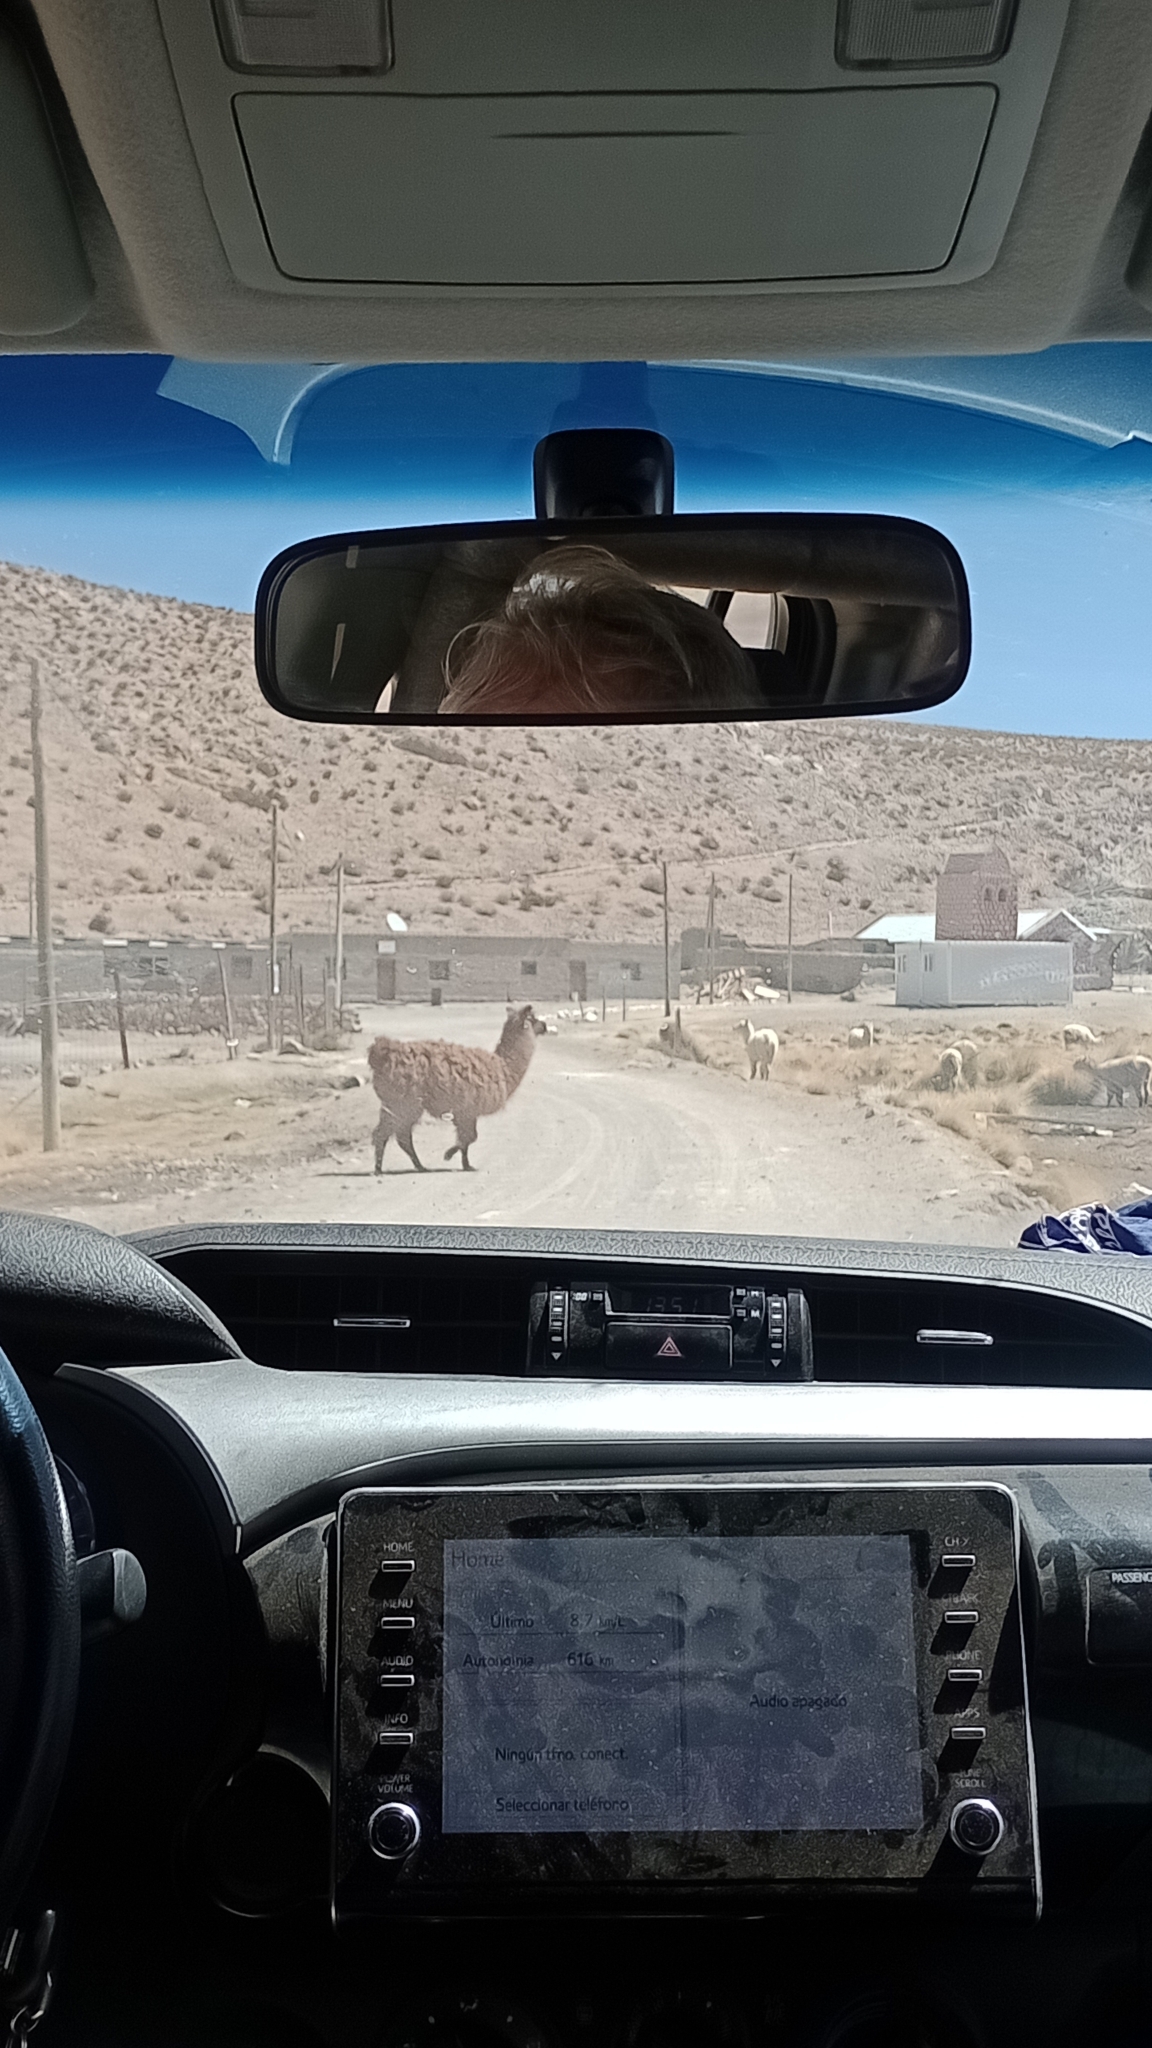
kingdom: Animalia
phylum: Chordata
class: Mammalia
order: Artiodactyla
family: Camelidae
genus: Lama
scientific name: Lama glama
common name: Llama
